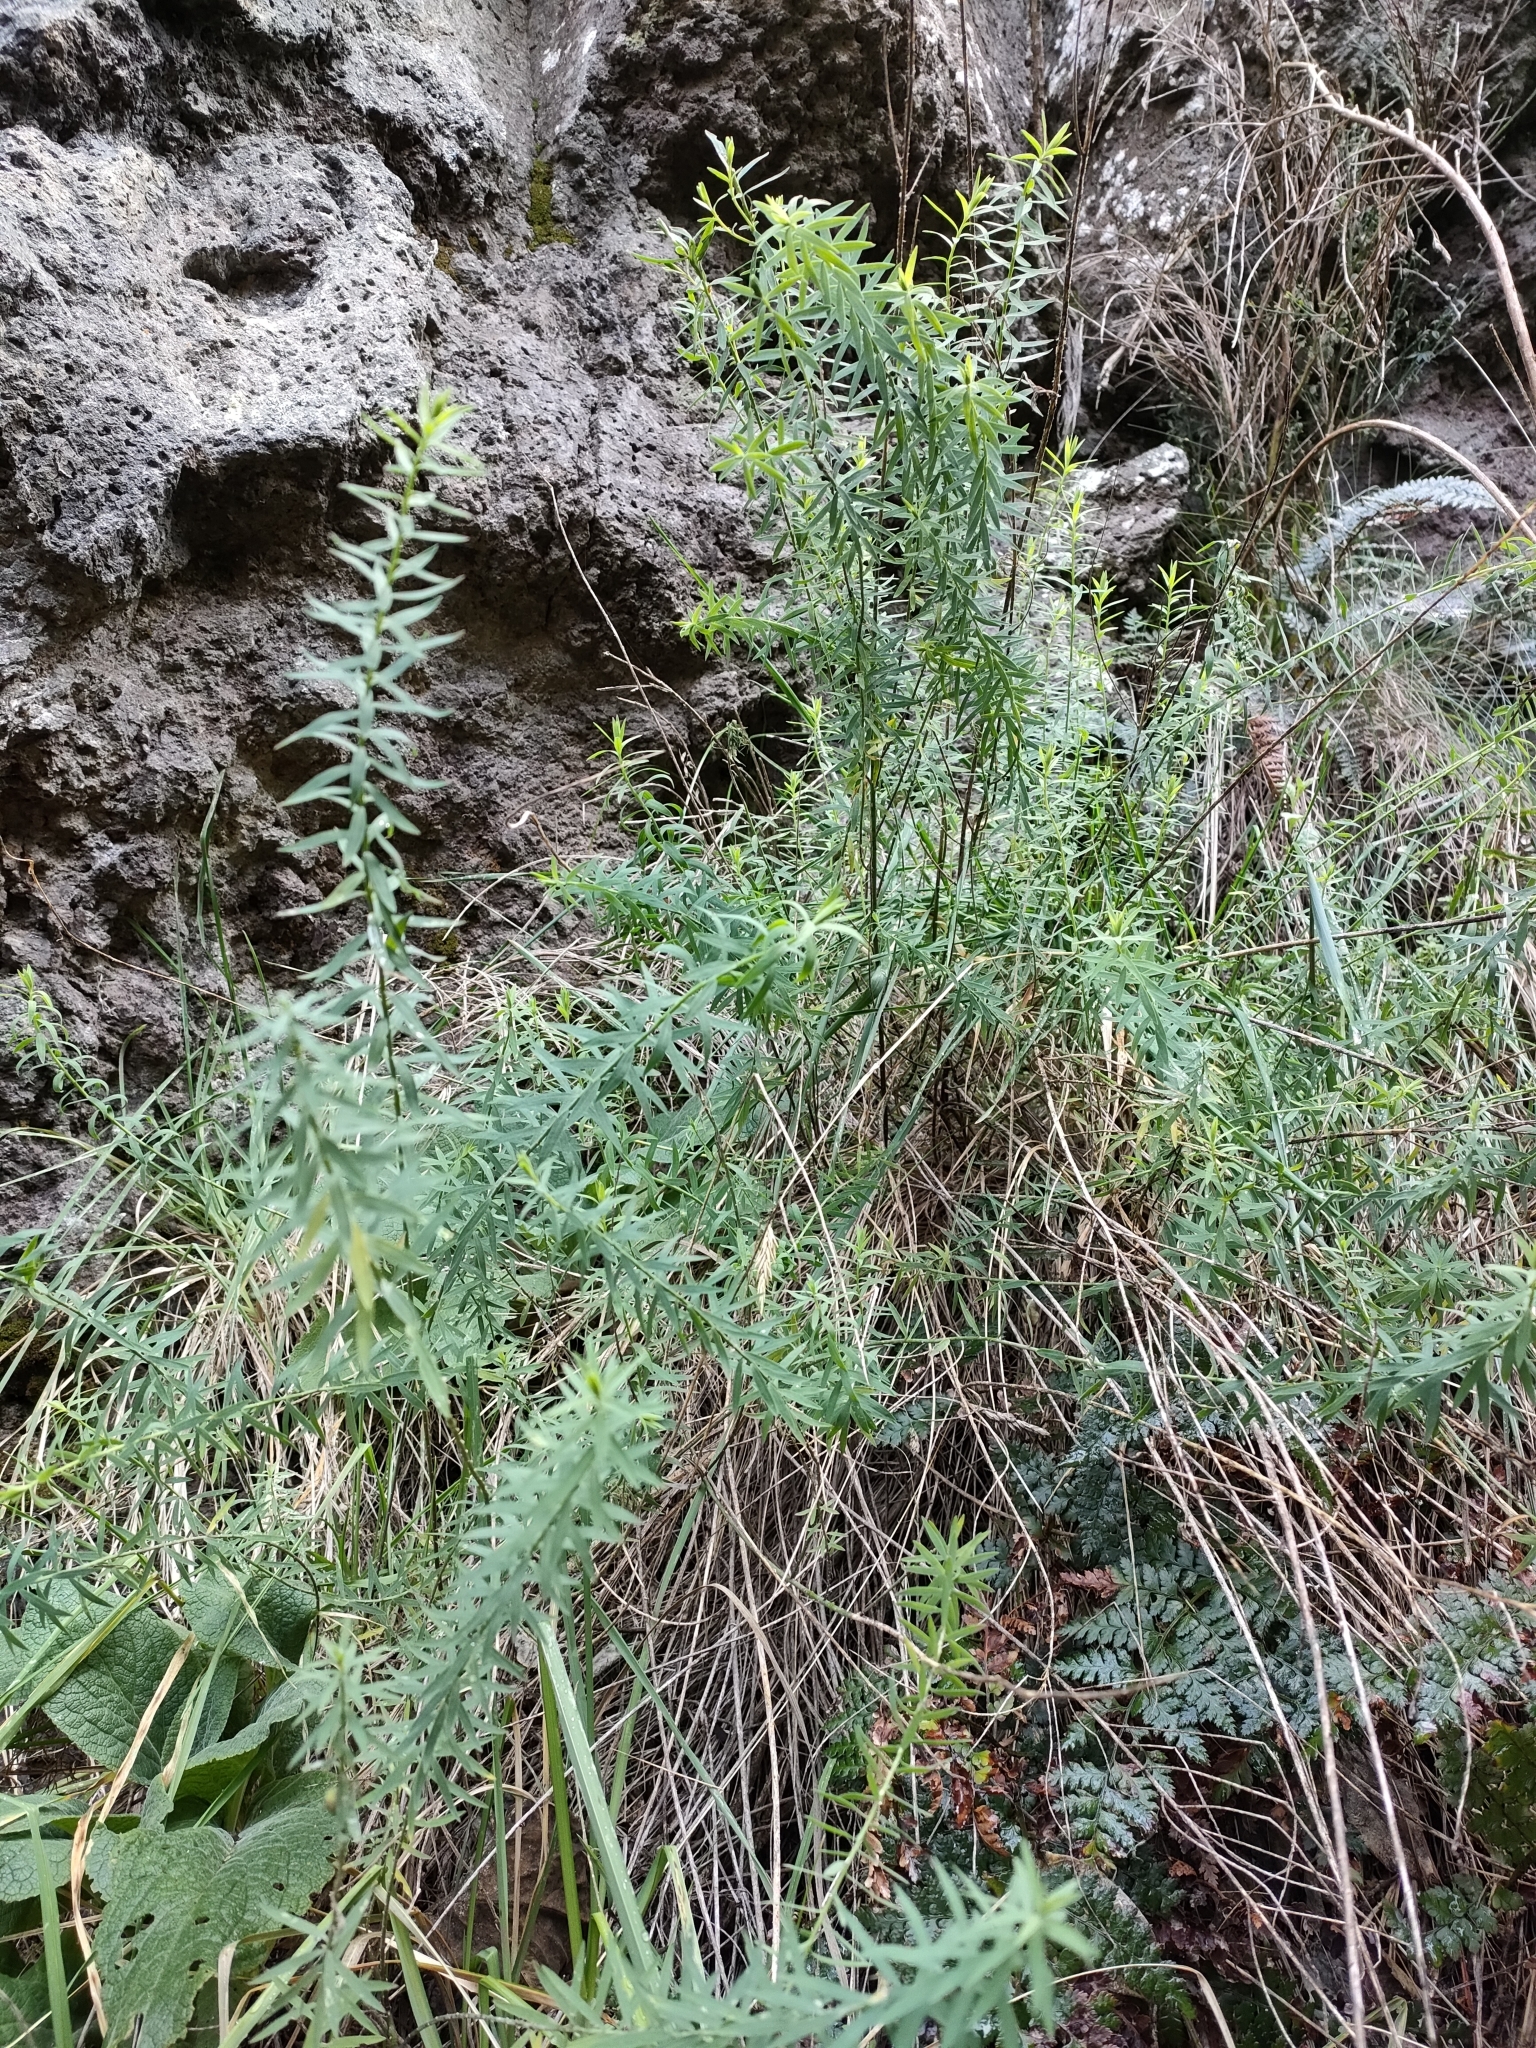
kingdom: Plantae
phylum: Tracheophyta
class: Magnoliopsida
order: Malpighiales
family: Linaceae
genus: Linum
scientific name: Linum monogynum
